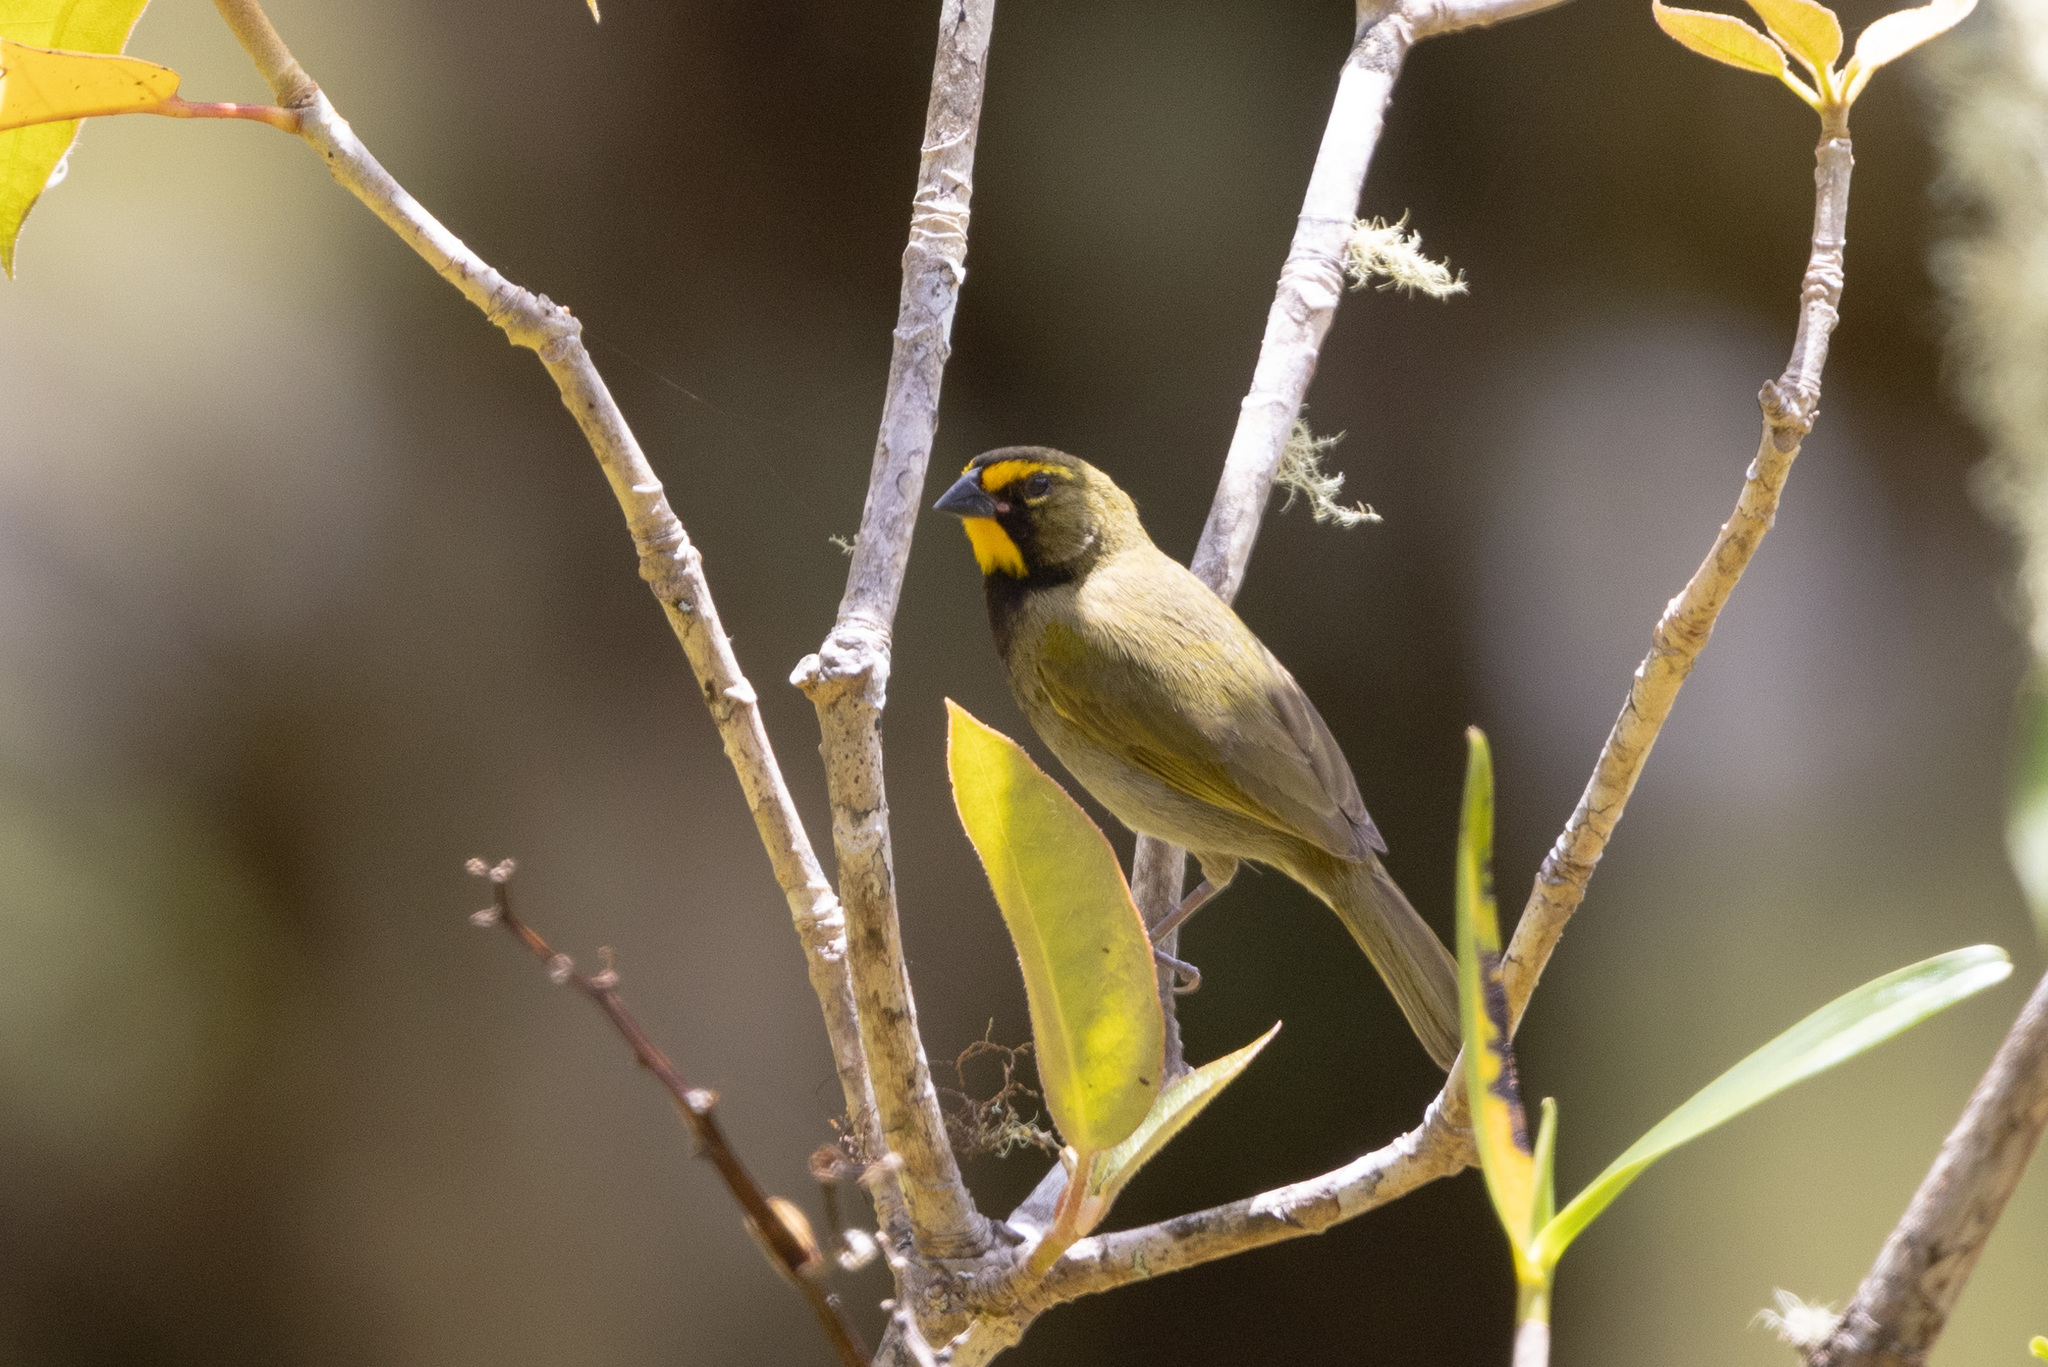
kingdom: Animalia
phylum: Chordata
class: Aves
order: Passeriformes
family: Thraupidae
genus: Tiaris
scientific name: Tiaris olivaceus
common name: Yellow-faced grassquit
